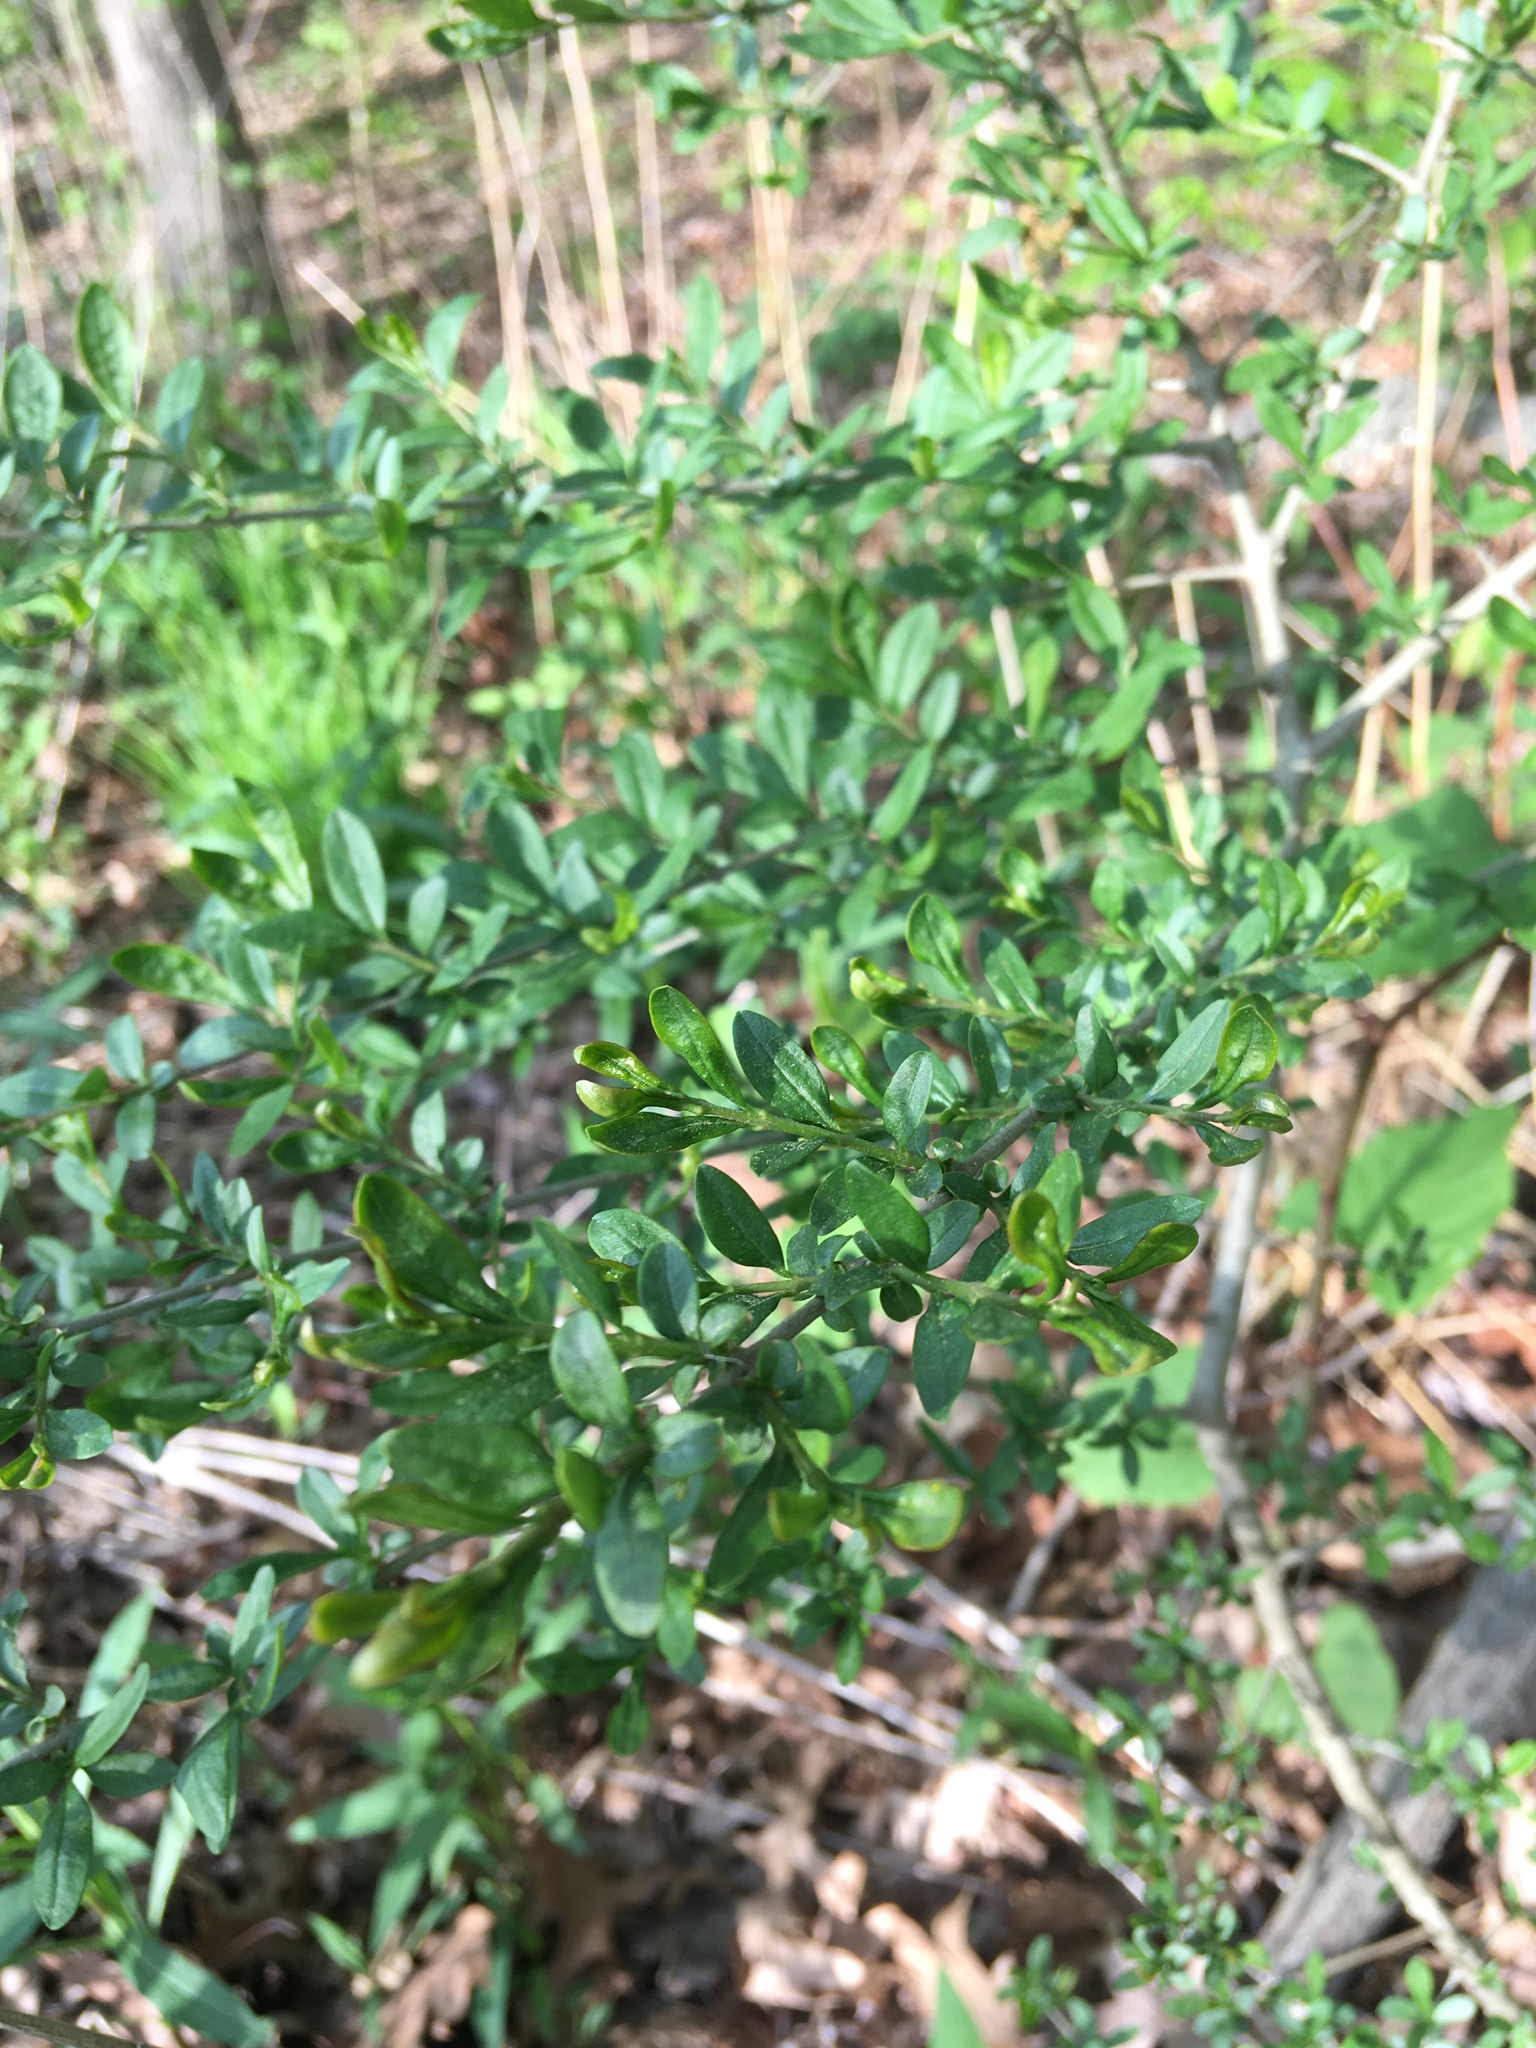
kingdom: Plantae
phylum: Tracheophyta
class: Magnoliopsida
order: Lamiales
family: Oleaceae
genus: Ligustrum
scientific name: Ligustrum vulgare
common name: Wild privet
